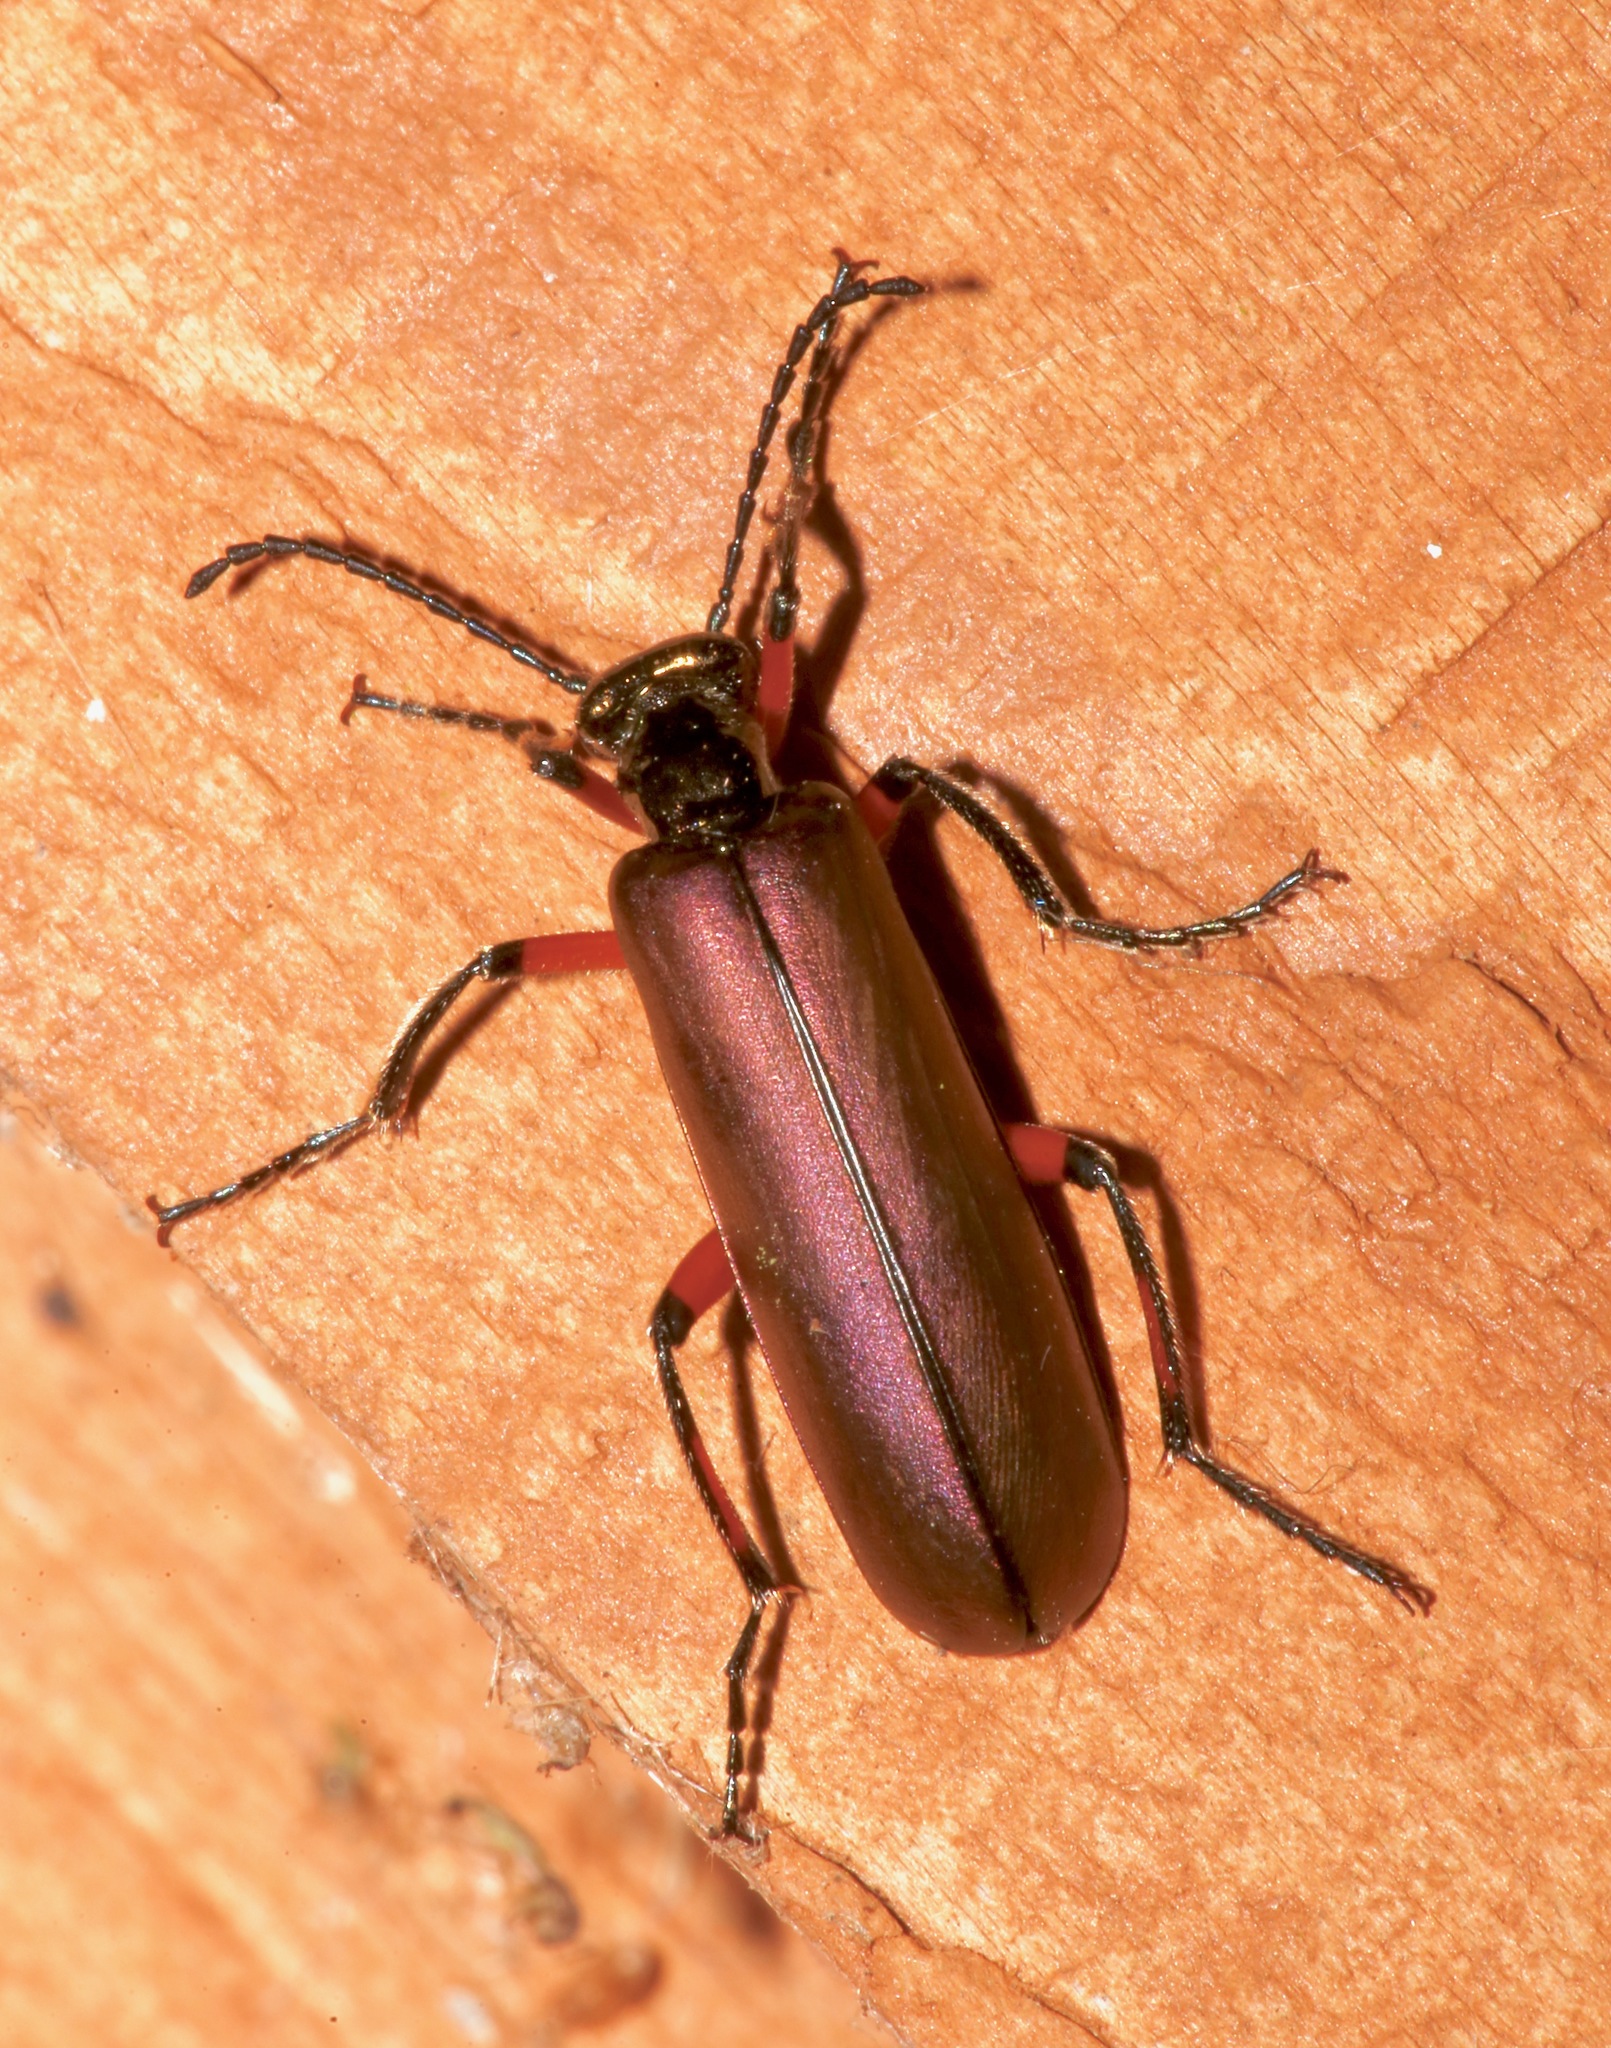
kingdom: Animalia
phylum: Arthropoda
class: Insecta
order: Coleoptera
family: Meloidae
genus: Lytta
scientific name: Lytta polita
